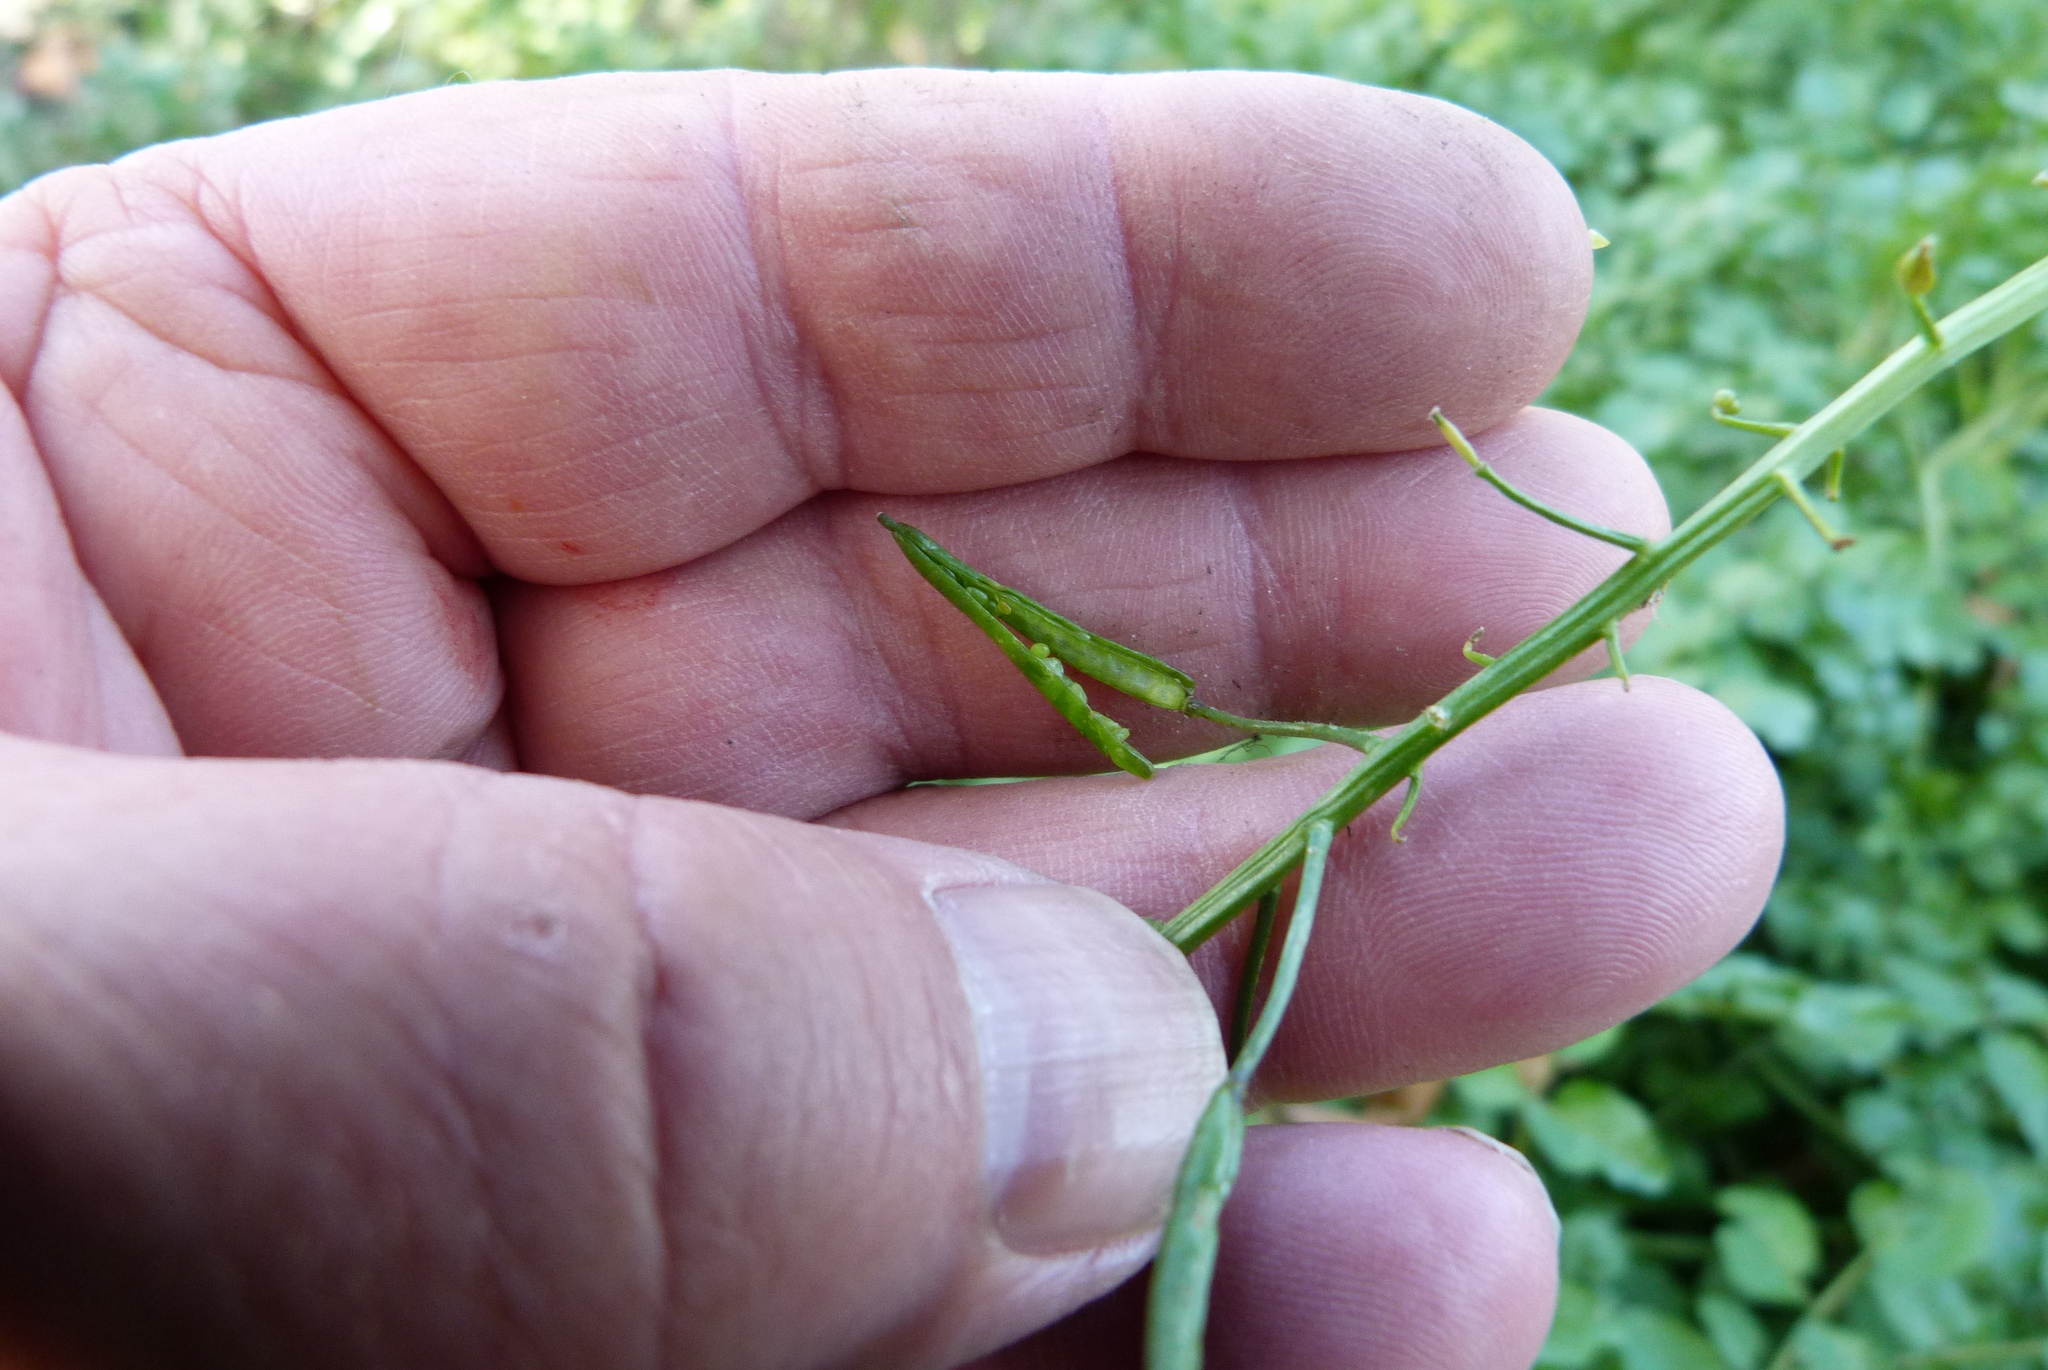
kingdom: Plantae
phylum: Tracheophyta
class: Magnoliopsida
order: Brassicales
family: Brassicaceae
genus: Nasturtium
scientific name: Nasturtium officinale
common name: Watercress
